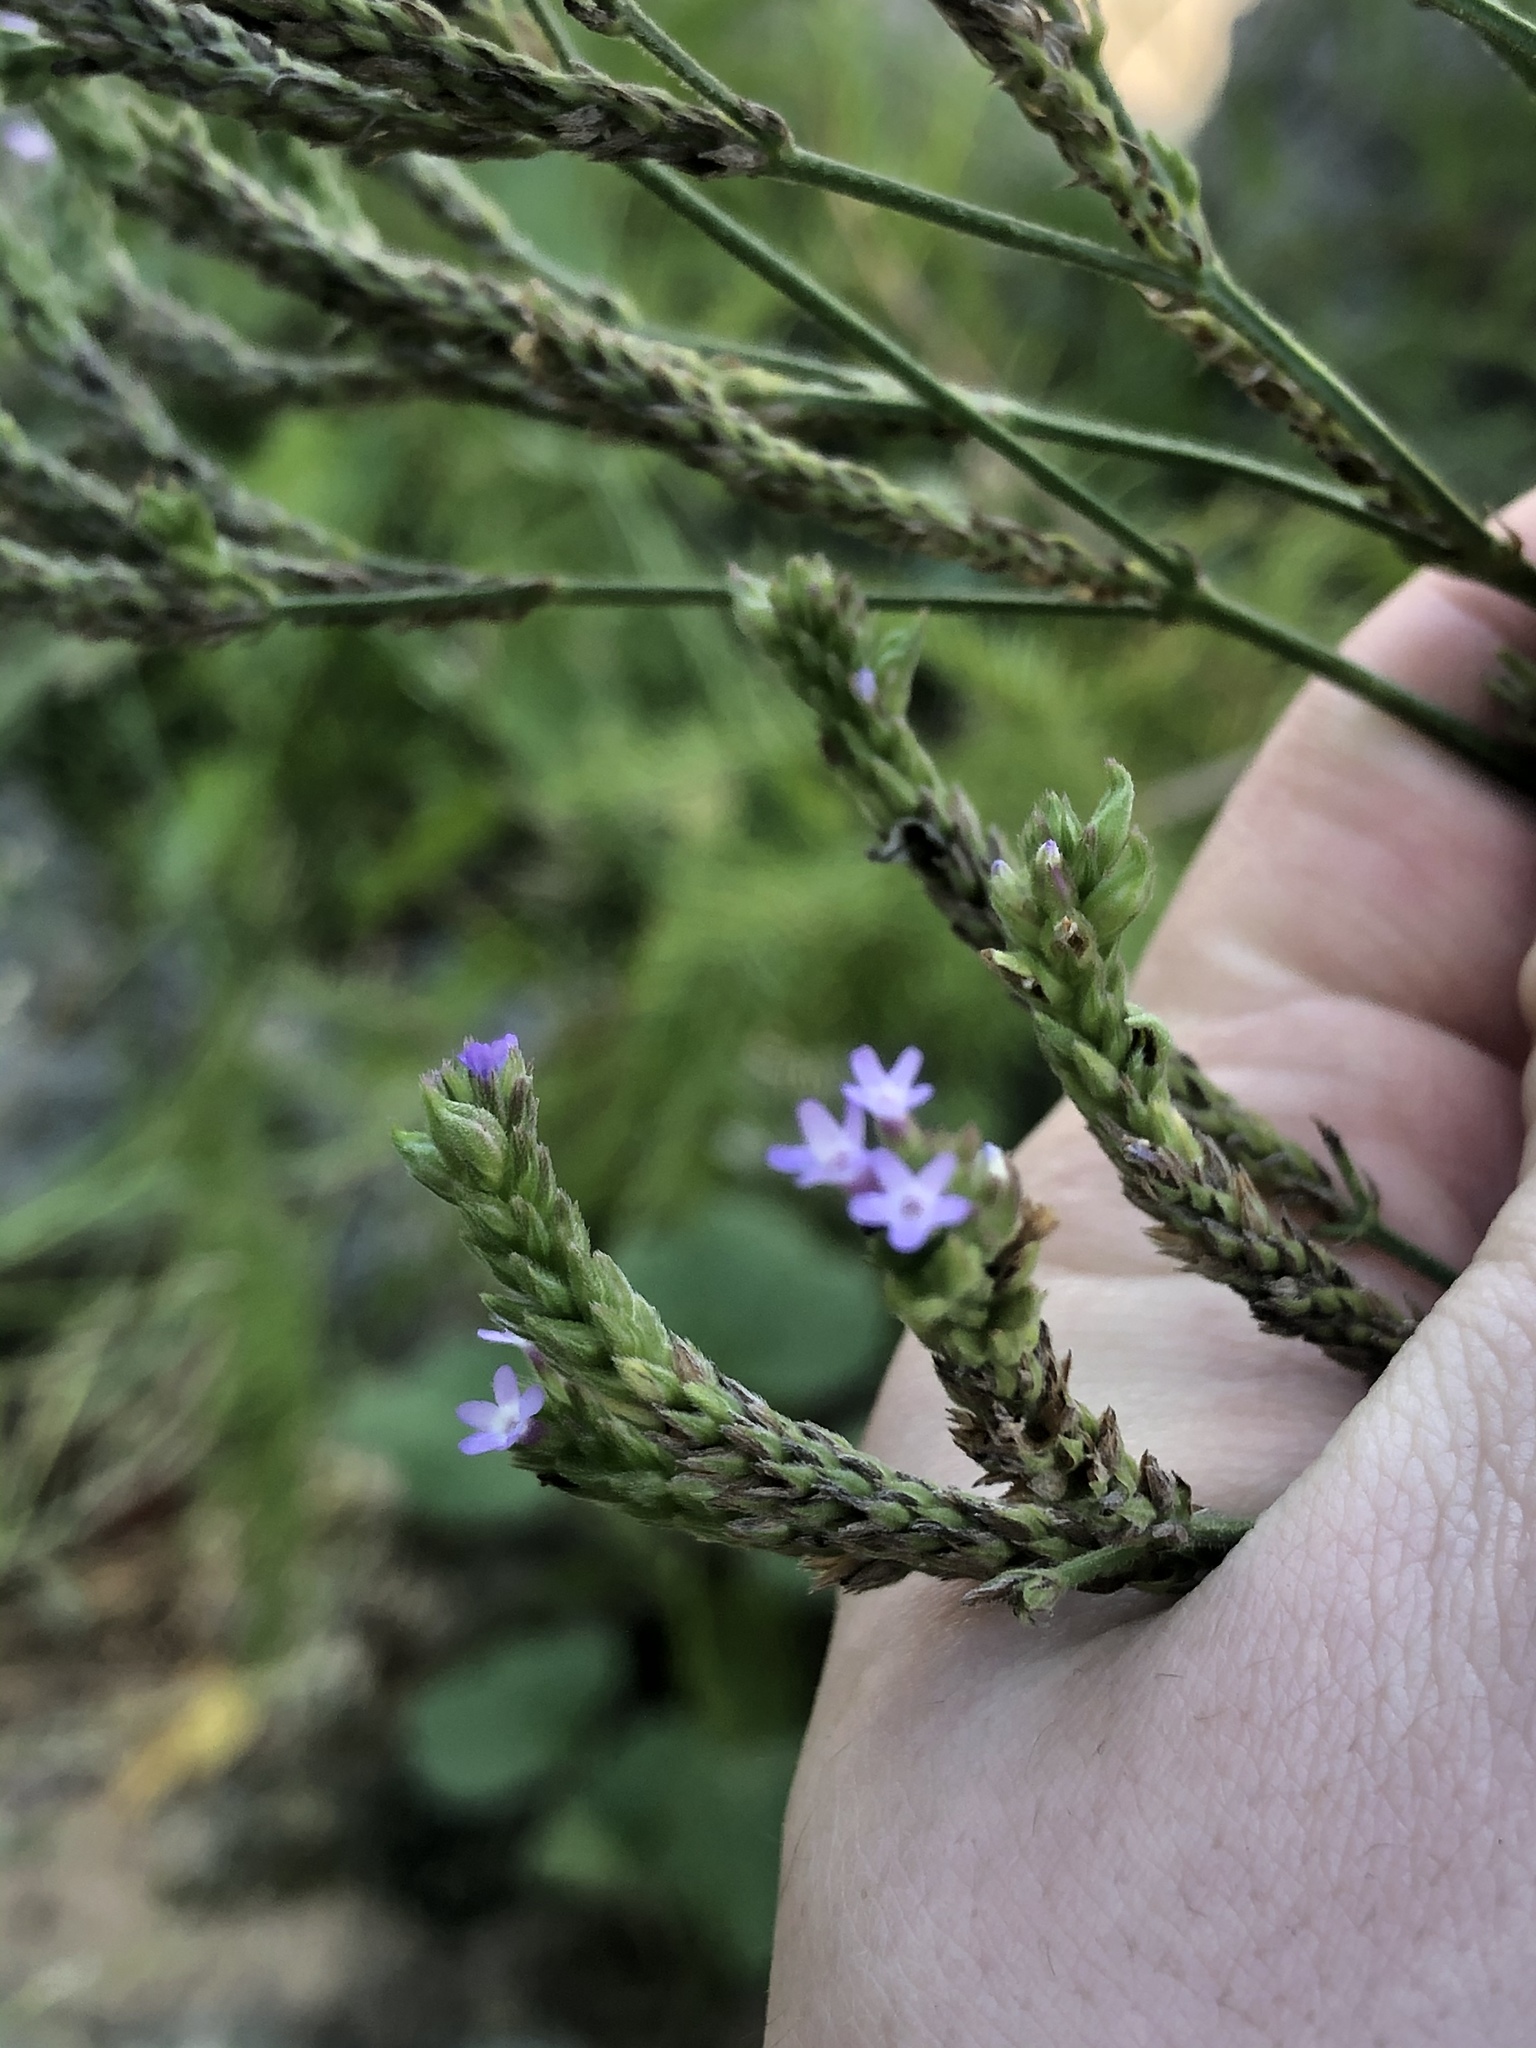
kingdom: Plantae
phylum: Tracheophyta
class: Magnoliopsida
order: Lamiales
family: Verbenaceae
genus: Verbena
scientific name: Verbena brasiliensis
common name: Brazilian vervain
